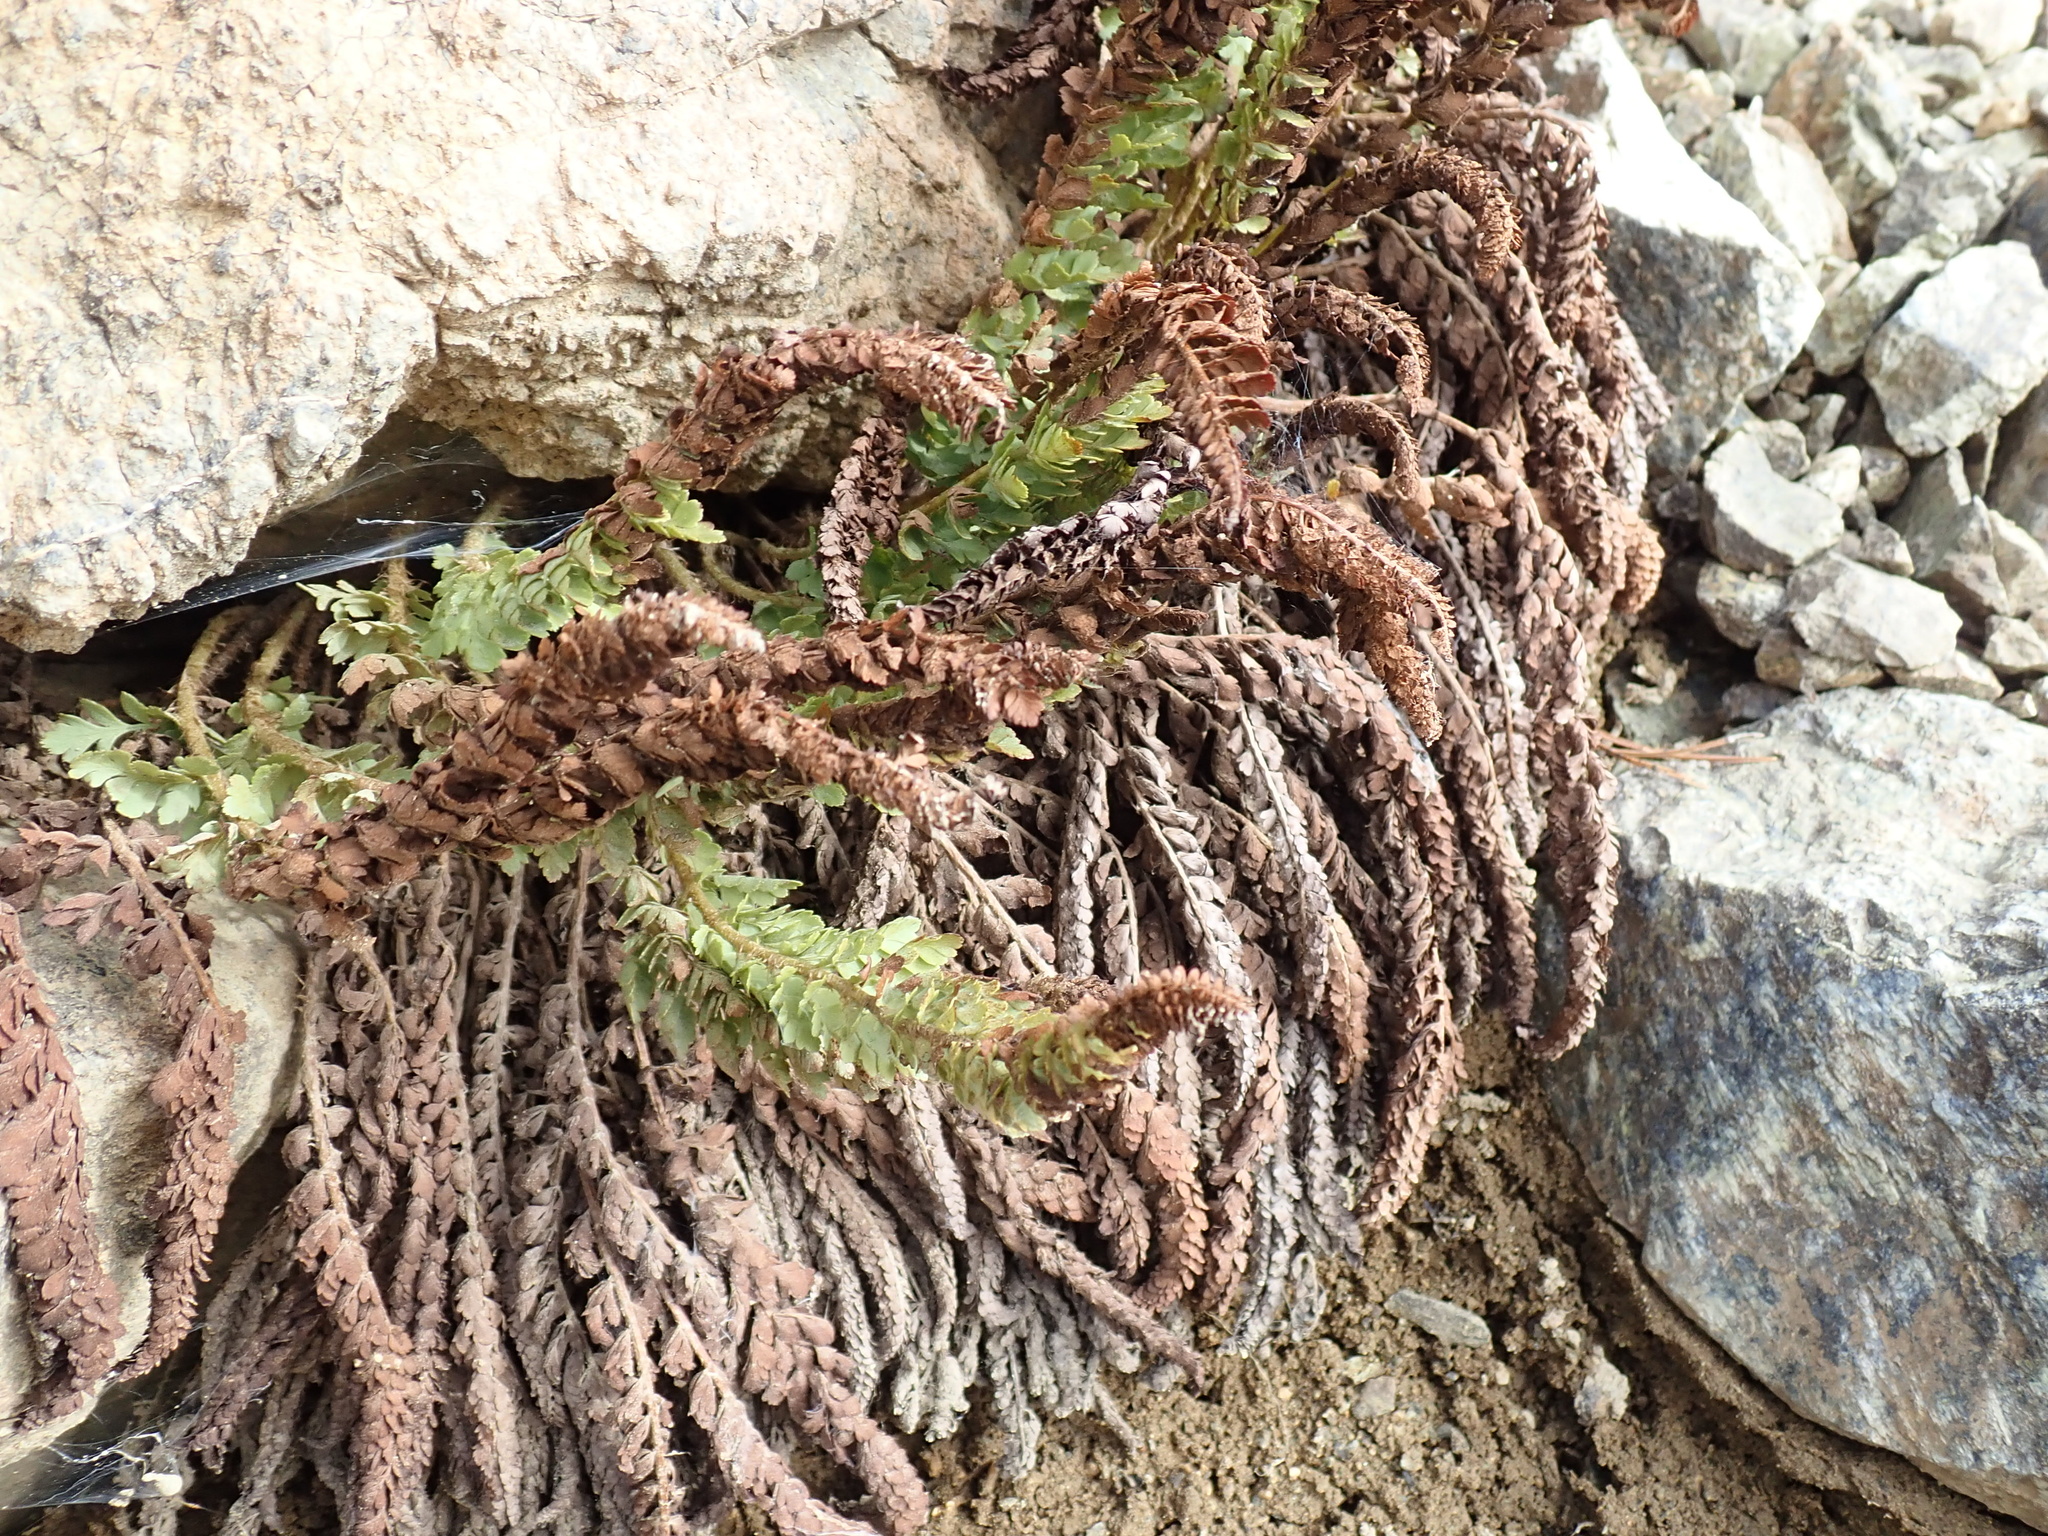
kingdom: Plantae
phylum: Tracheophyta
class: Polypodiopsida
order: Polypodiales
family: Dryopteridaceae
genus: Polystichum
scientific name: Polystichum lemmonii
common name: Lemmon's holly fern
